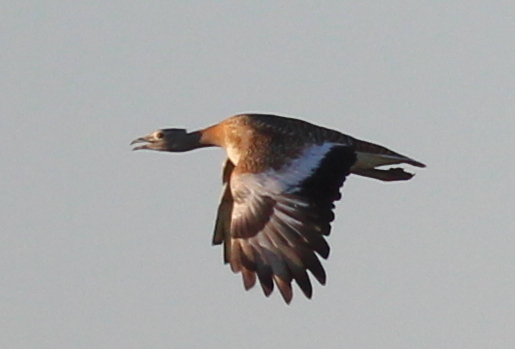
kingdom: Animalia
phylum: Chordata
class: Aves
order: Otidiformes
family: Otididae
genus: Otis
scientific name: Otis tarda
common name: Great bustard
